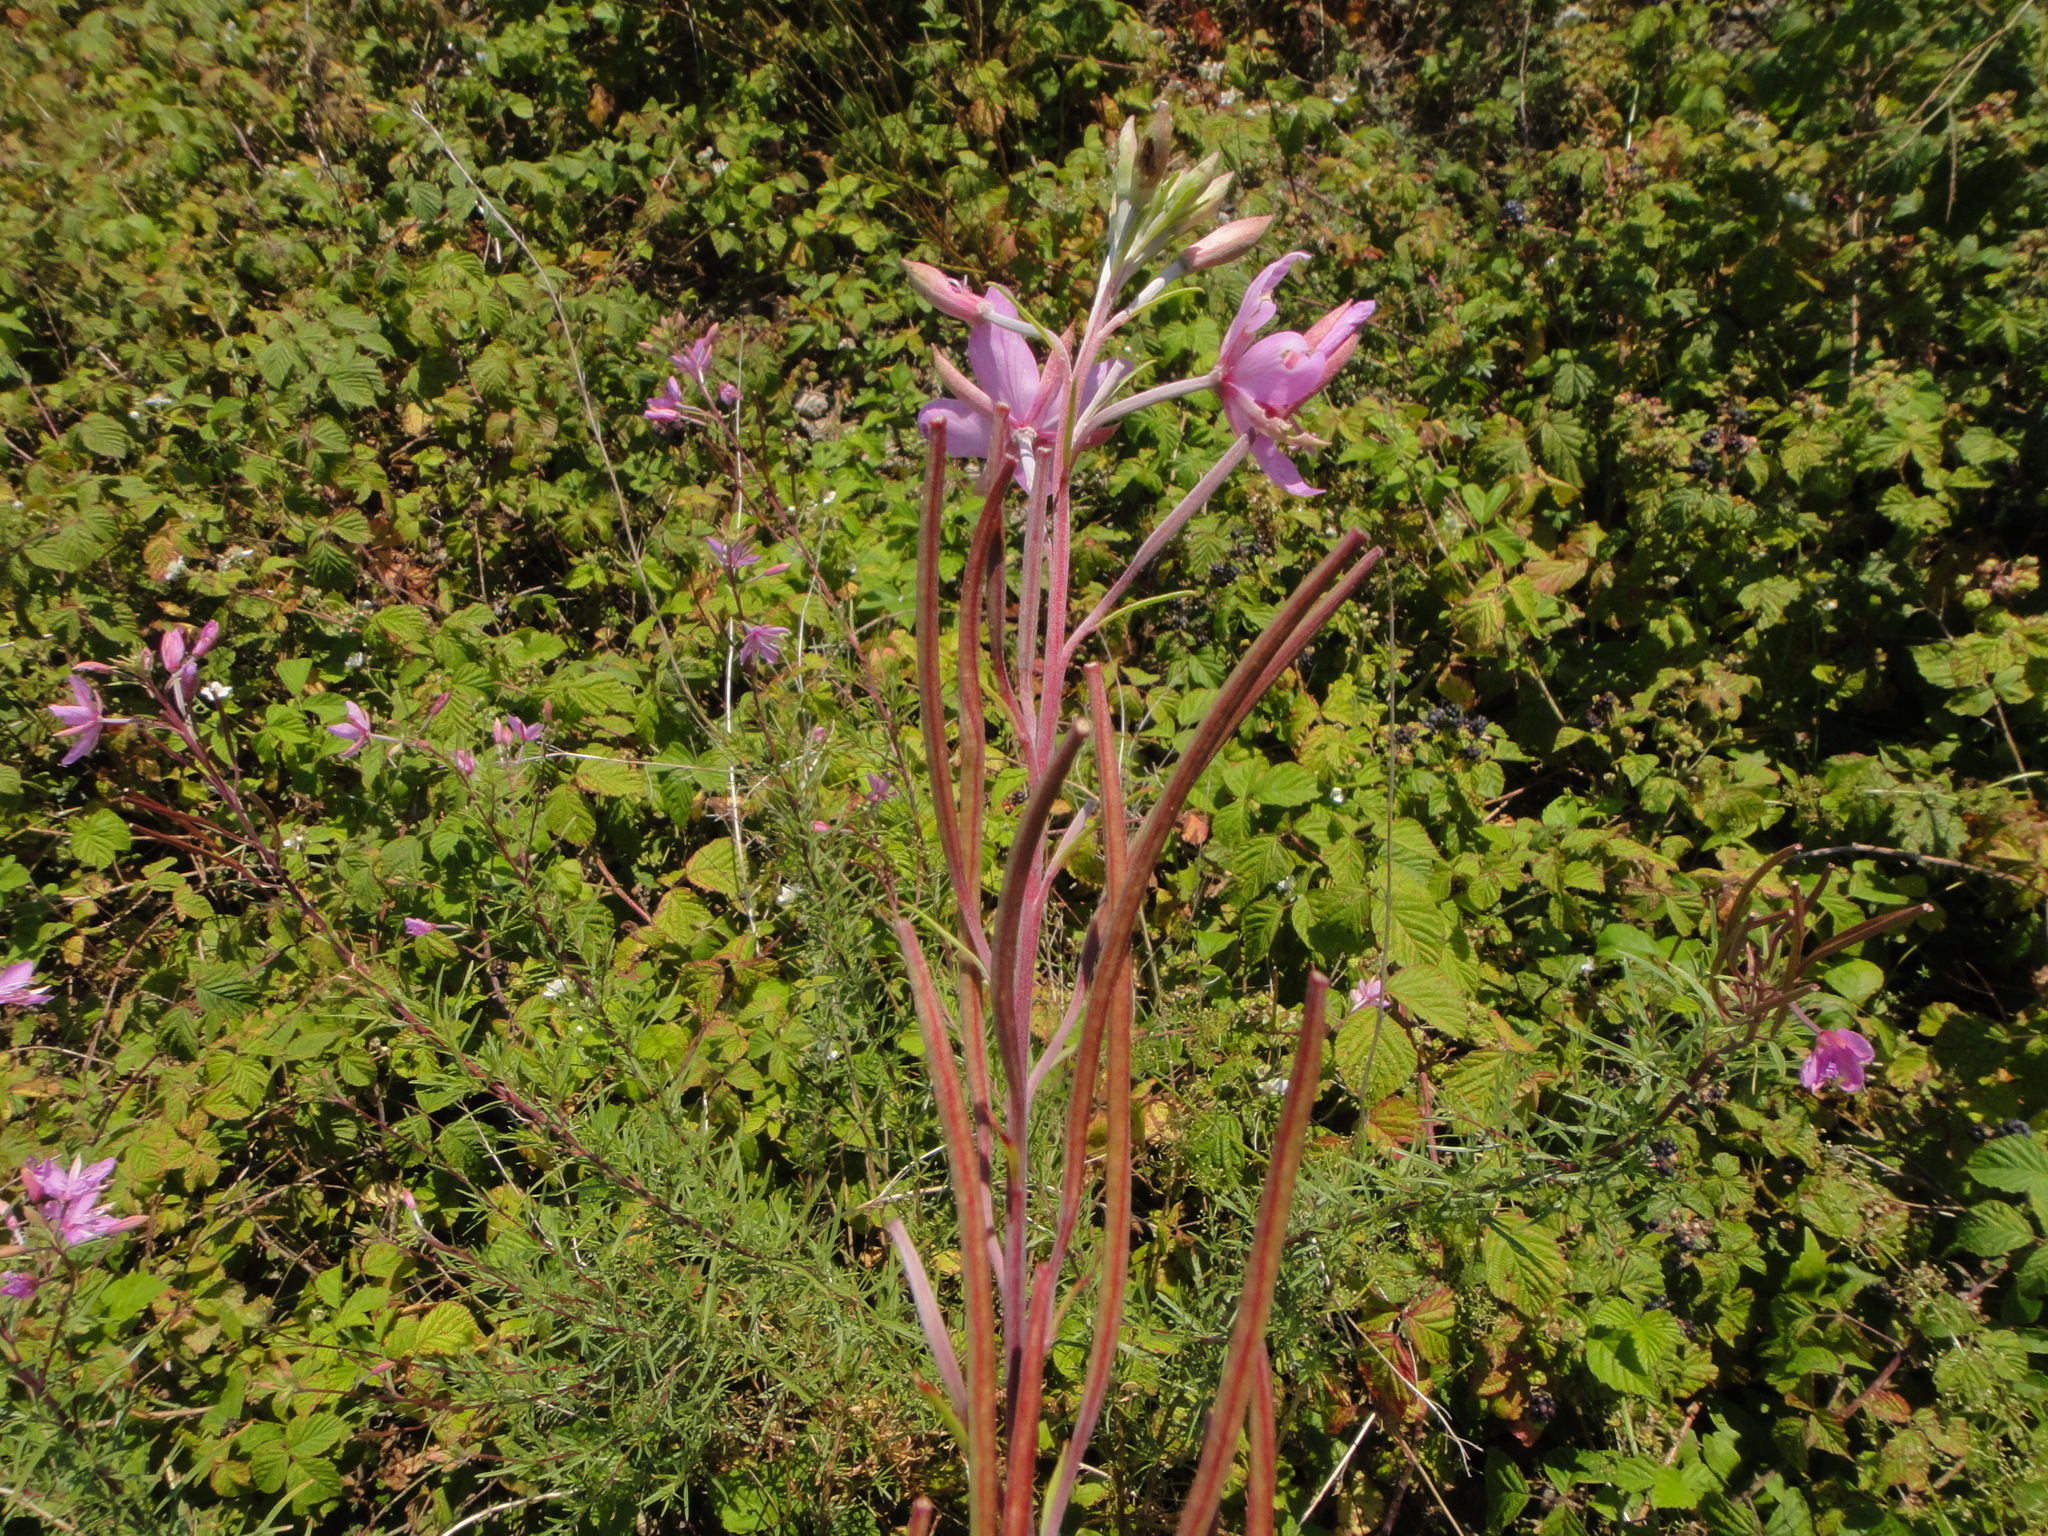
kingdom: Plantae
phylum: Tracheophyta
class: Magnoliopsida
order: Myrtales
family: Onagraceae
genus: Chamaenerion
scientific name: Chamaenerion dodonaei
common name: Rosemary-leaved willowherb
